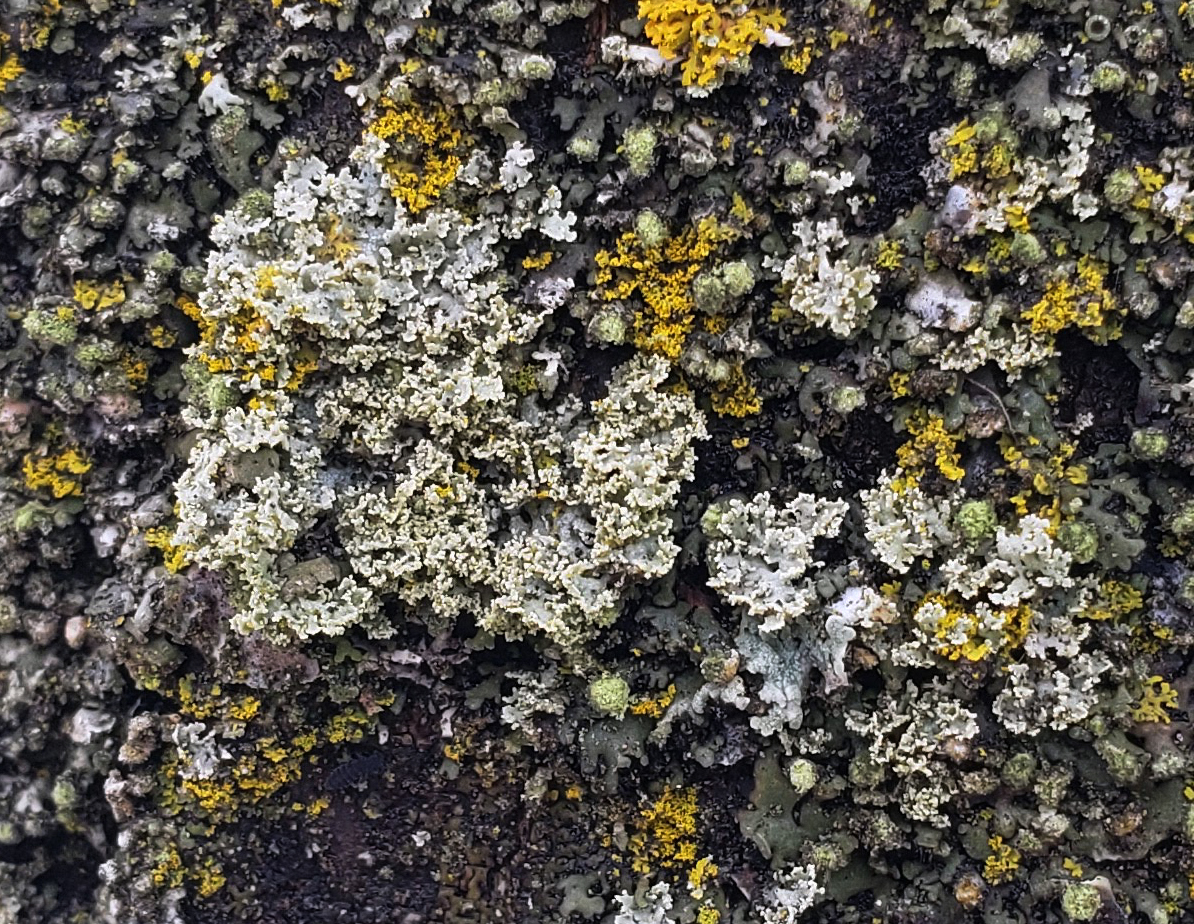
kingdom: Fungi
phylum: Ascomycota
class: Lecanoromycetes
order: Caliciales
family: Physciaceae
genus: Physcia
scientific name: Physcia millegrana
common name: Rosette lichen
